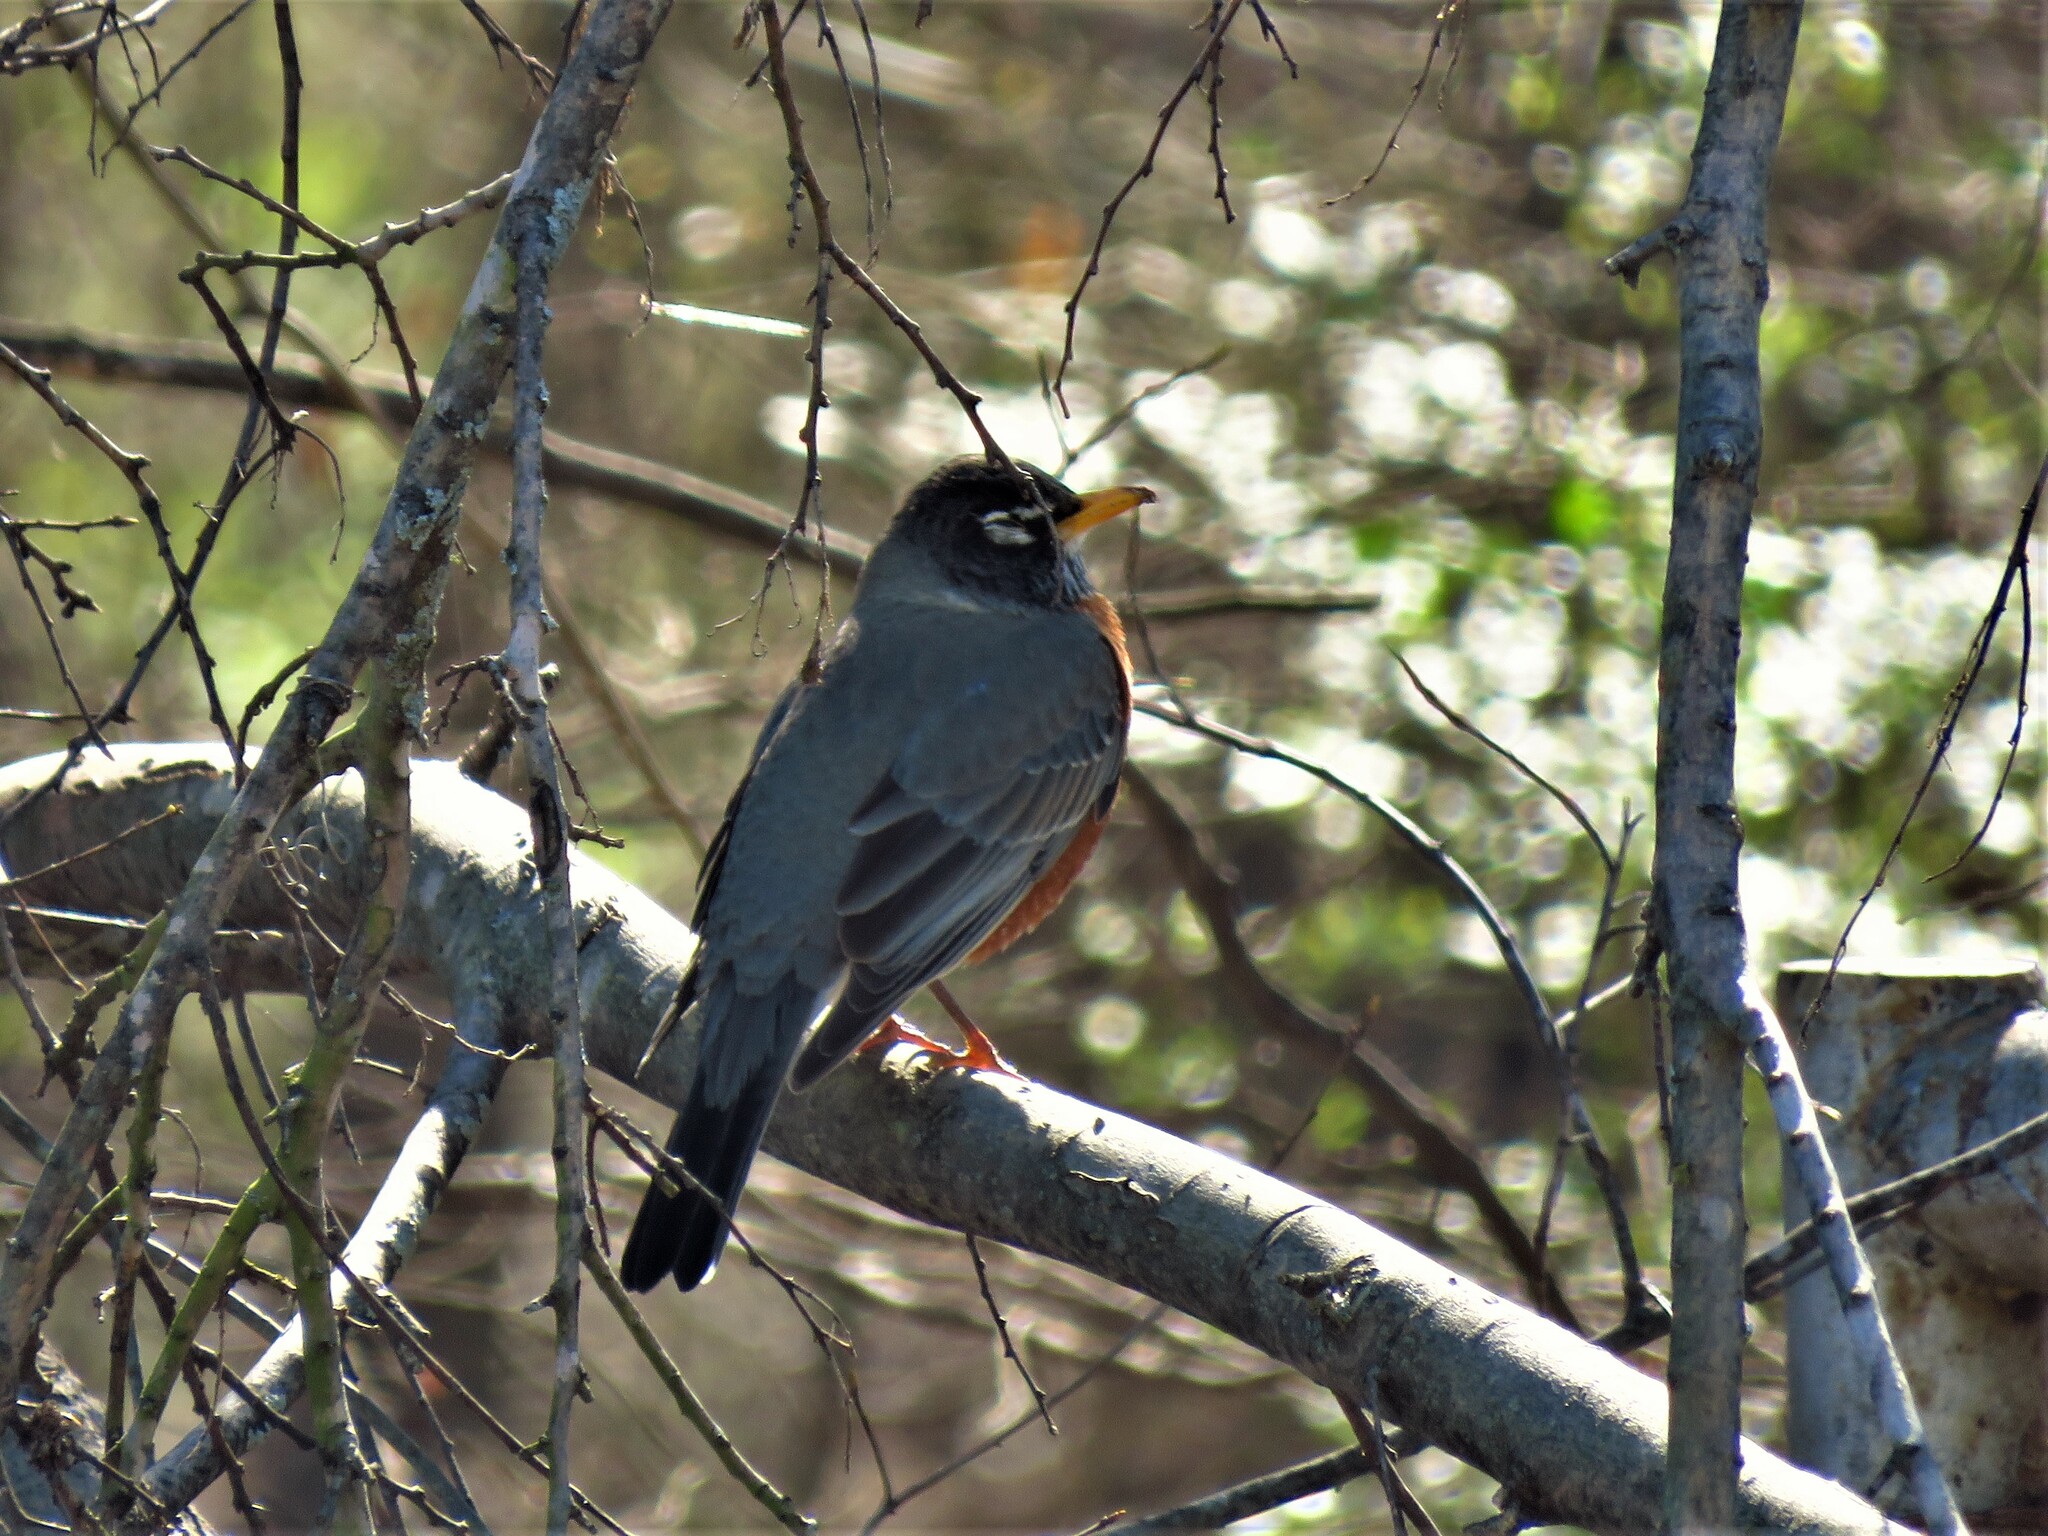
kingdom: Animalia
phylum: Chordata
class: Aves
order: Passeriformes
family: Turdidae
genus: Turdus
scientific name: Turdus migratorius
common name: American robin
